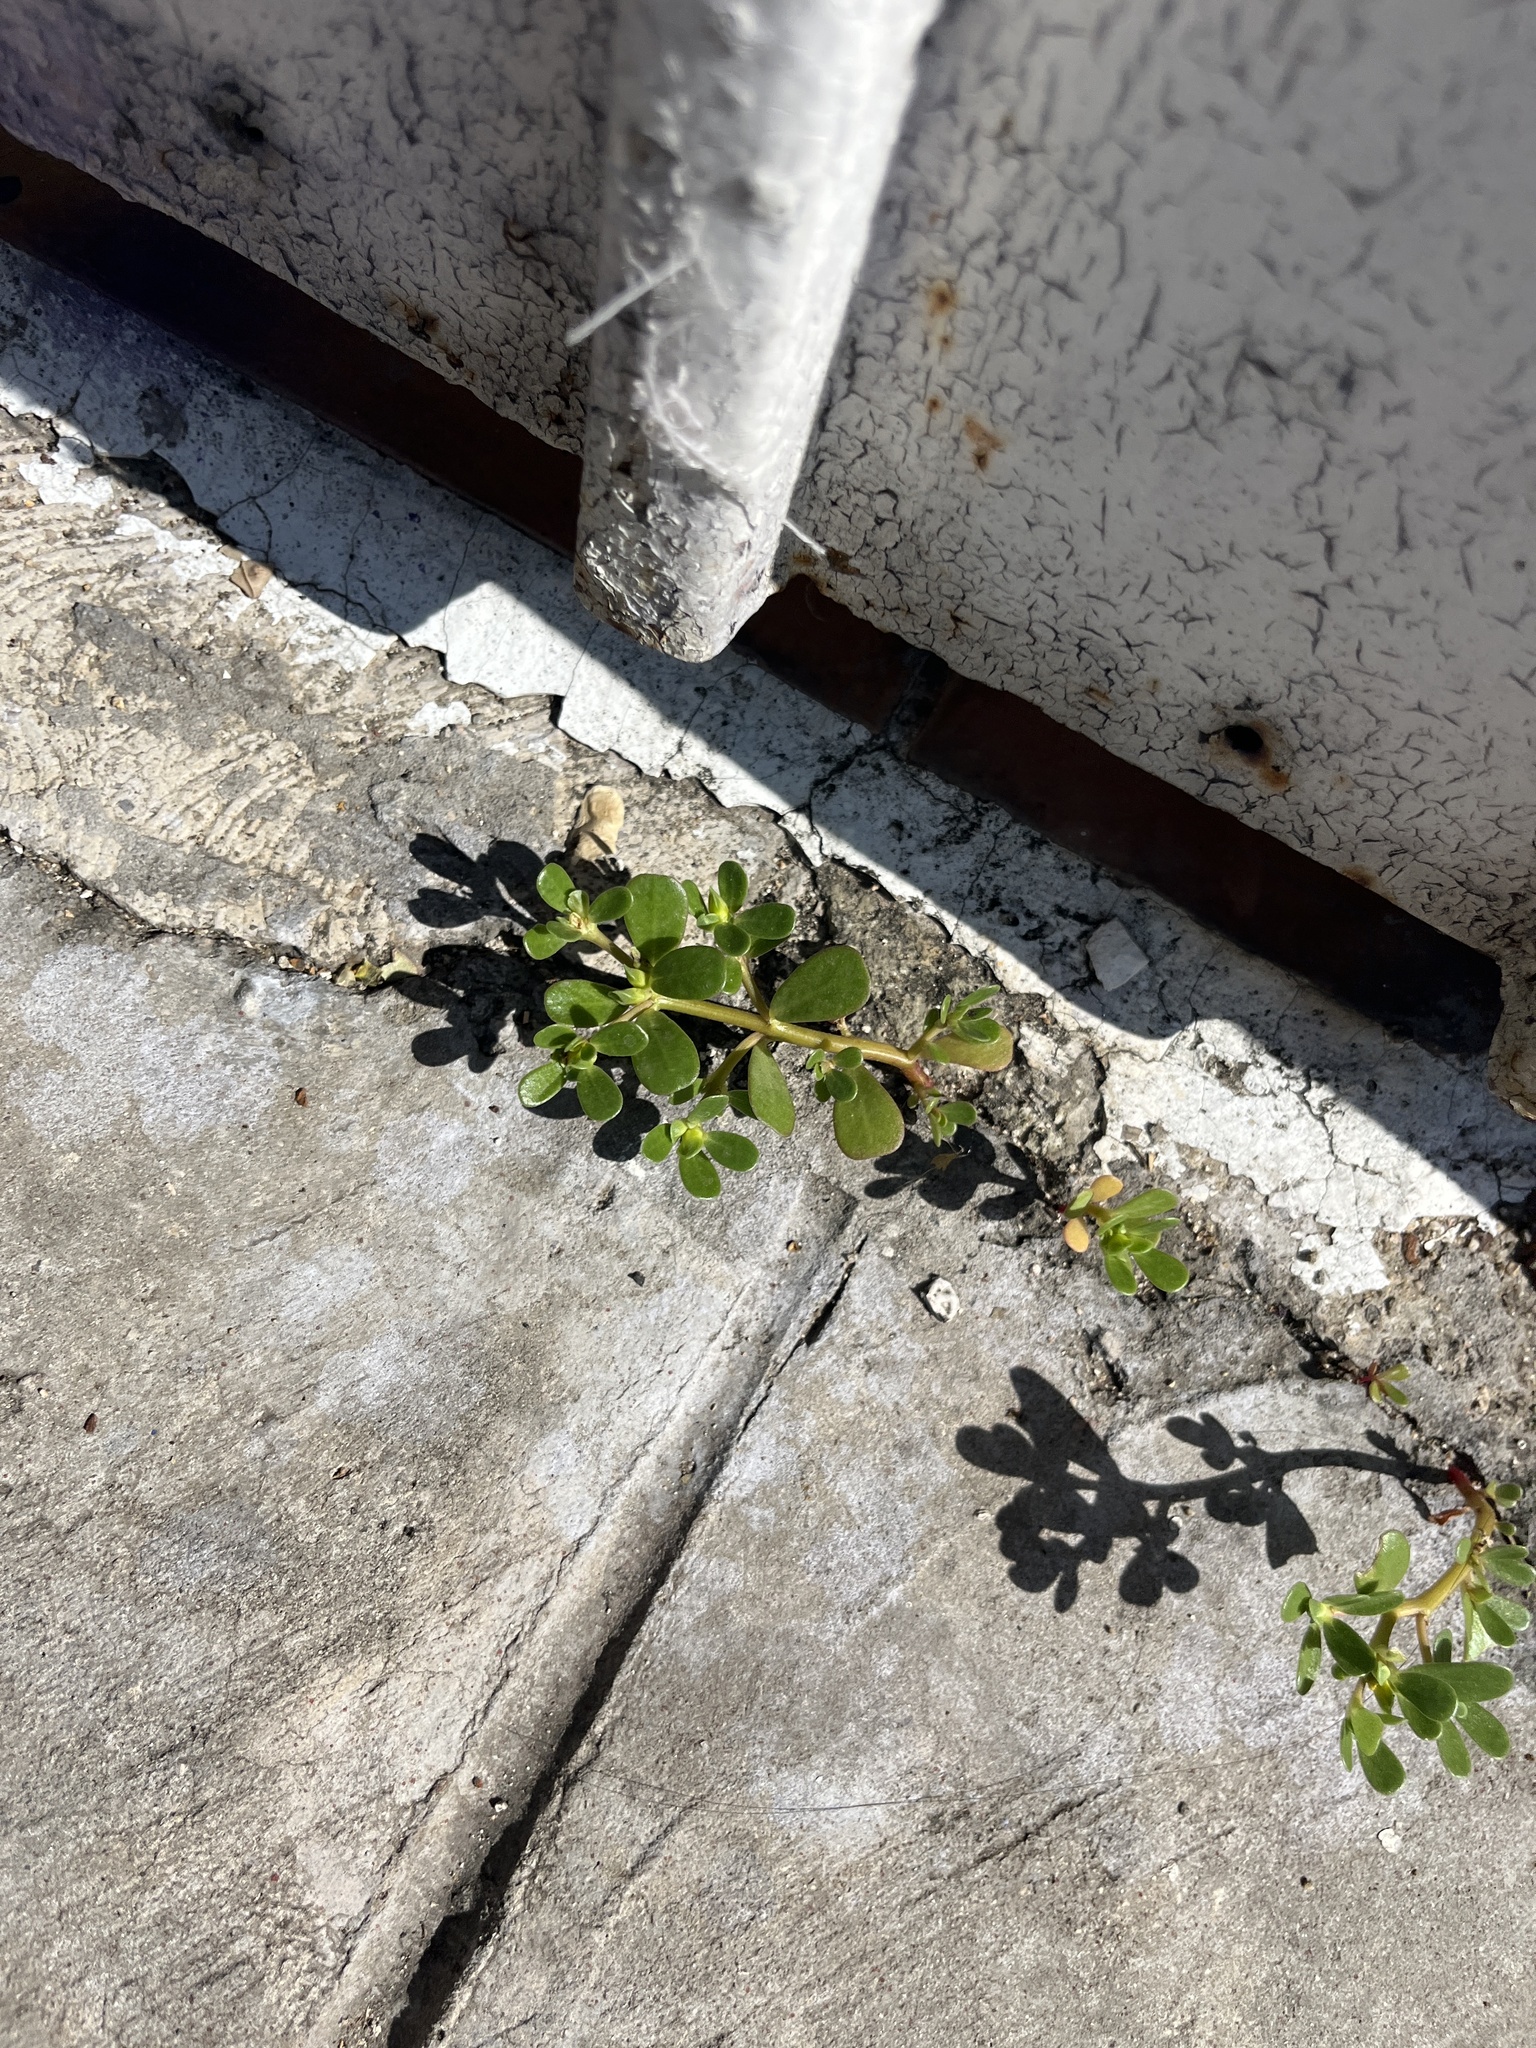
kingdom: Plantae
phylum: Tracheophyta
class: Magnoliopsida
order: Caryophyllales
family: Portulacaceae
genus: Portulaca
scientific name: Portulaca oleracea
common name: Common purslane
